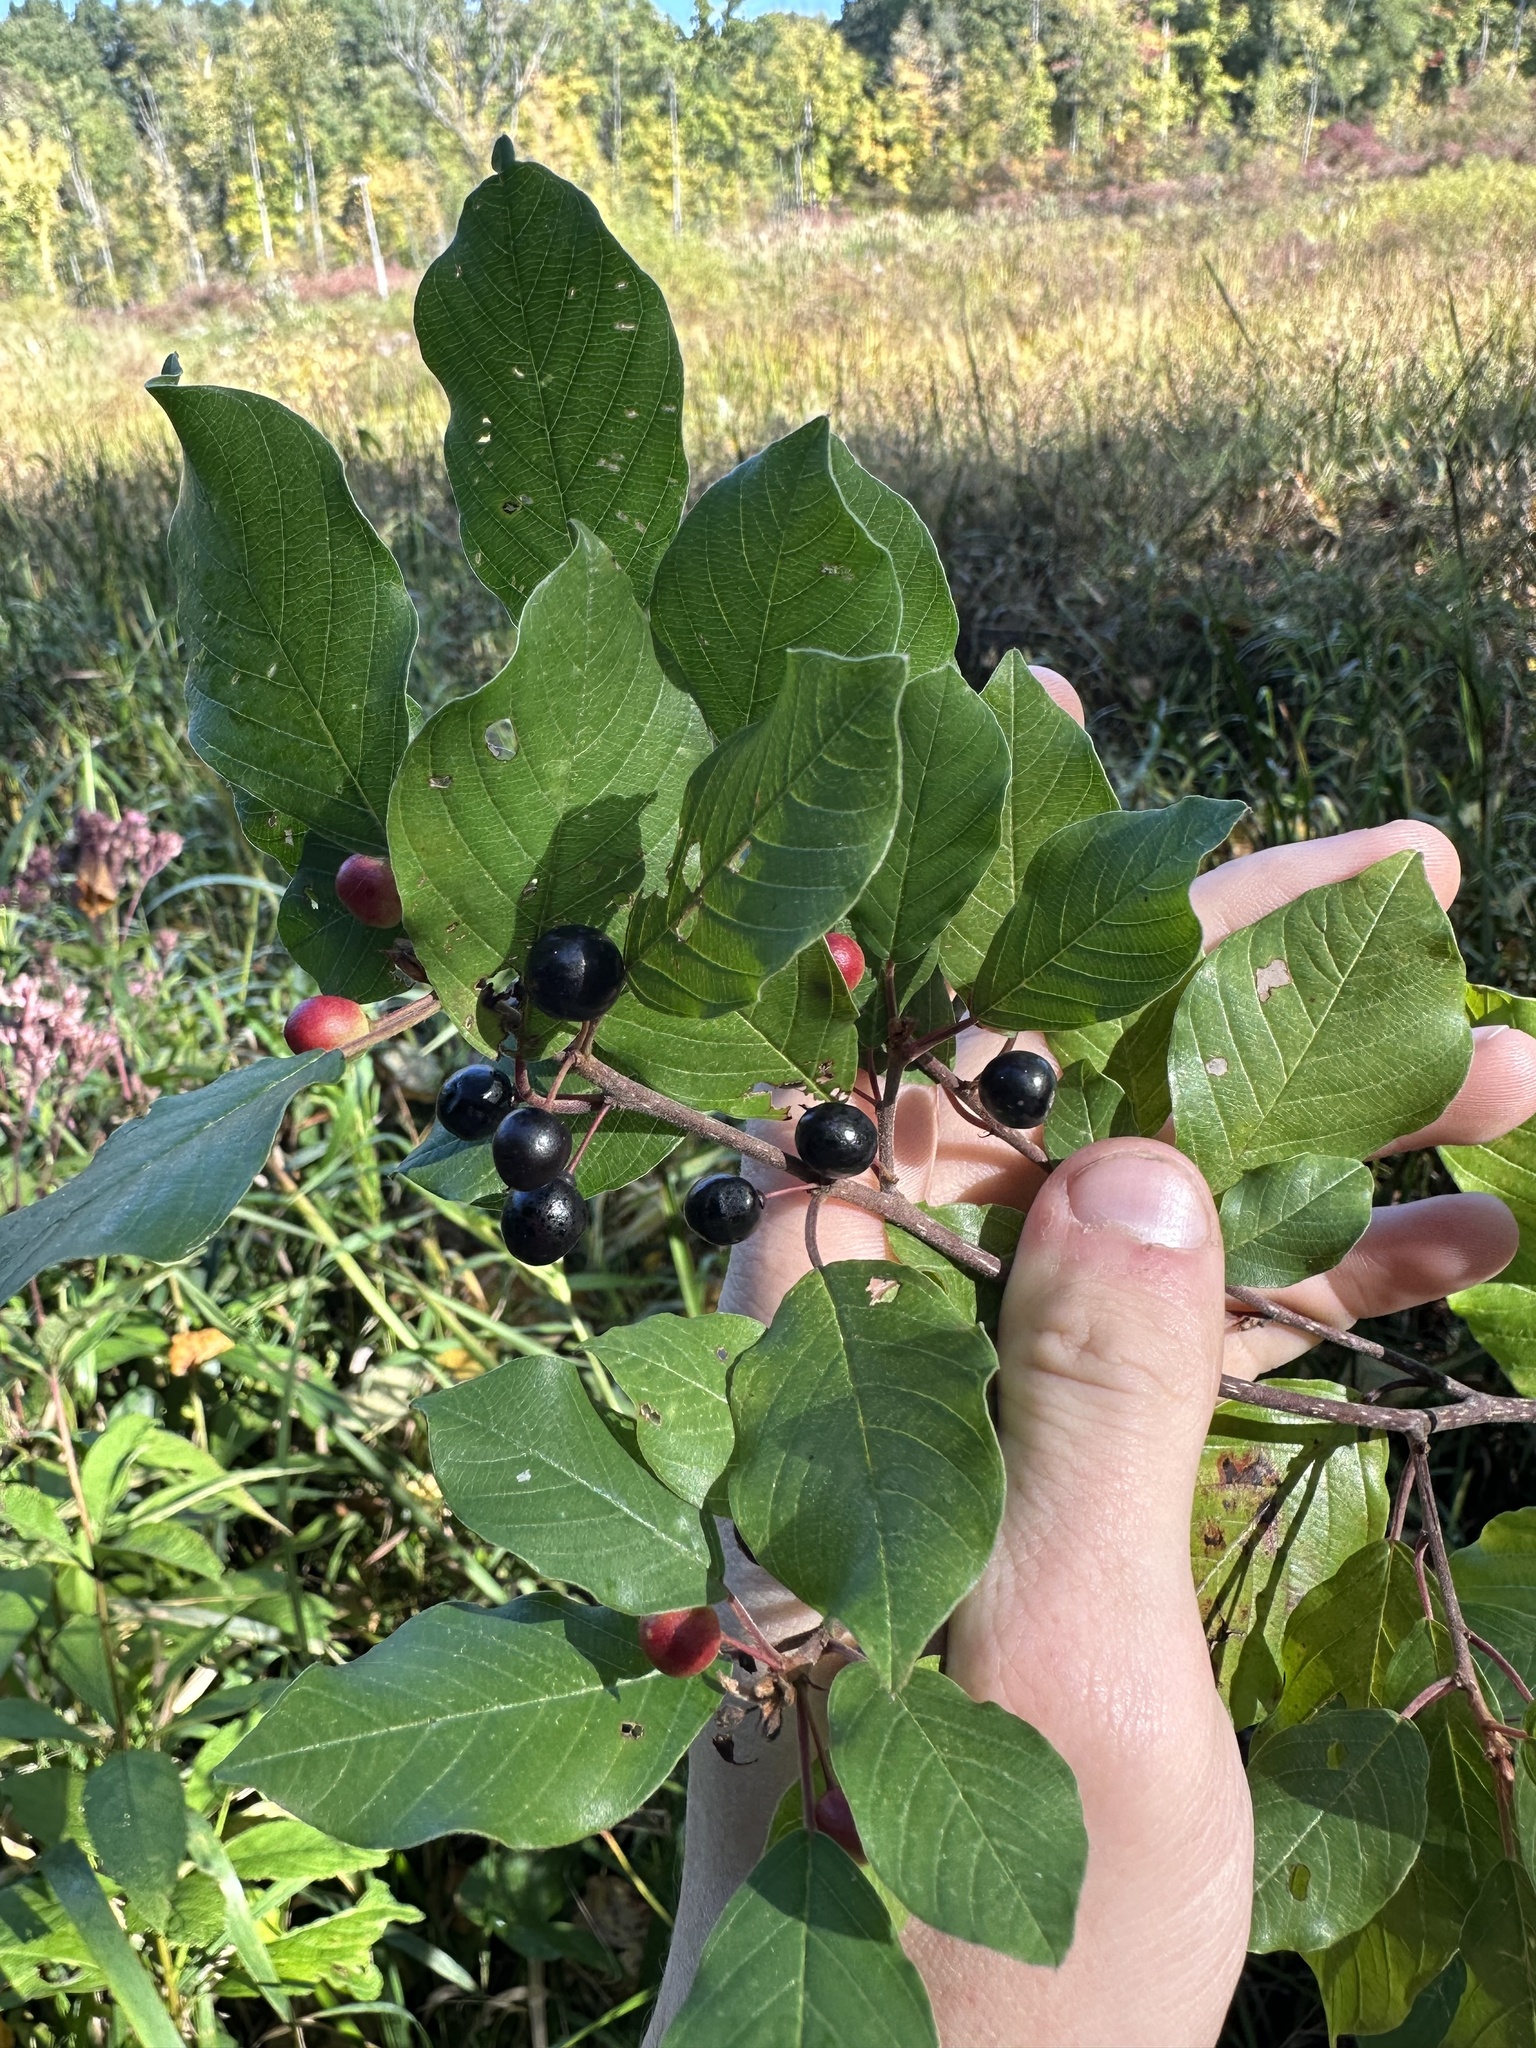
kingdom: Plantae
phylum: Tracheophyta
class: Magnoliopsida
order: Rosales
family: Rhamnaceae
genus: Frangula
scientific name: Frangula alnus
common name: Alder buckthorn
